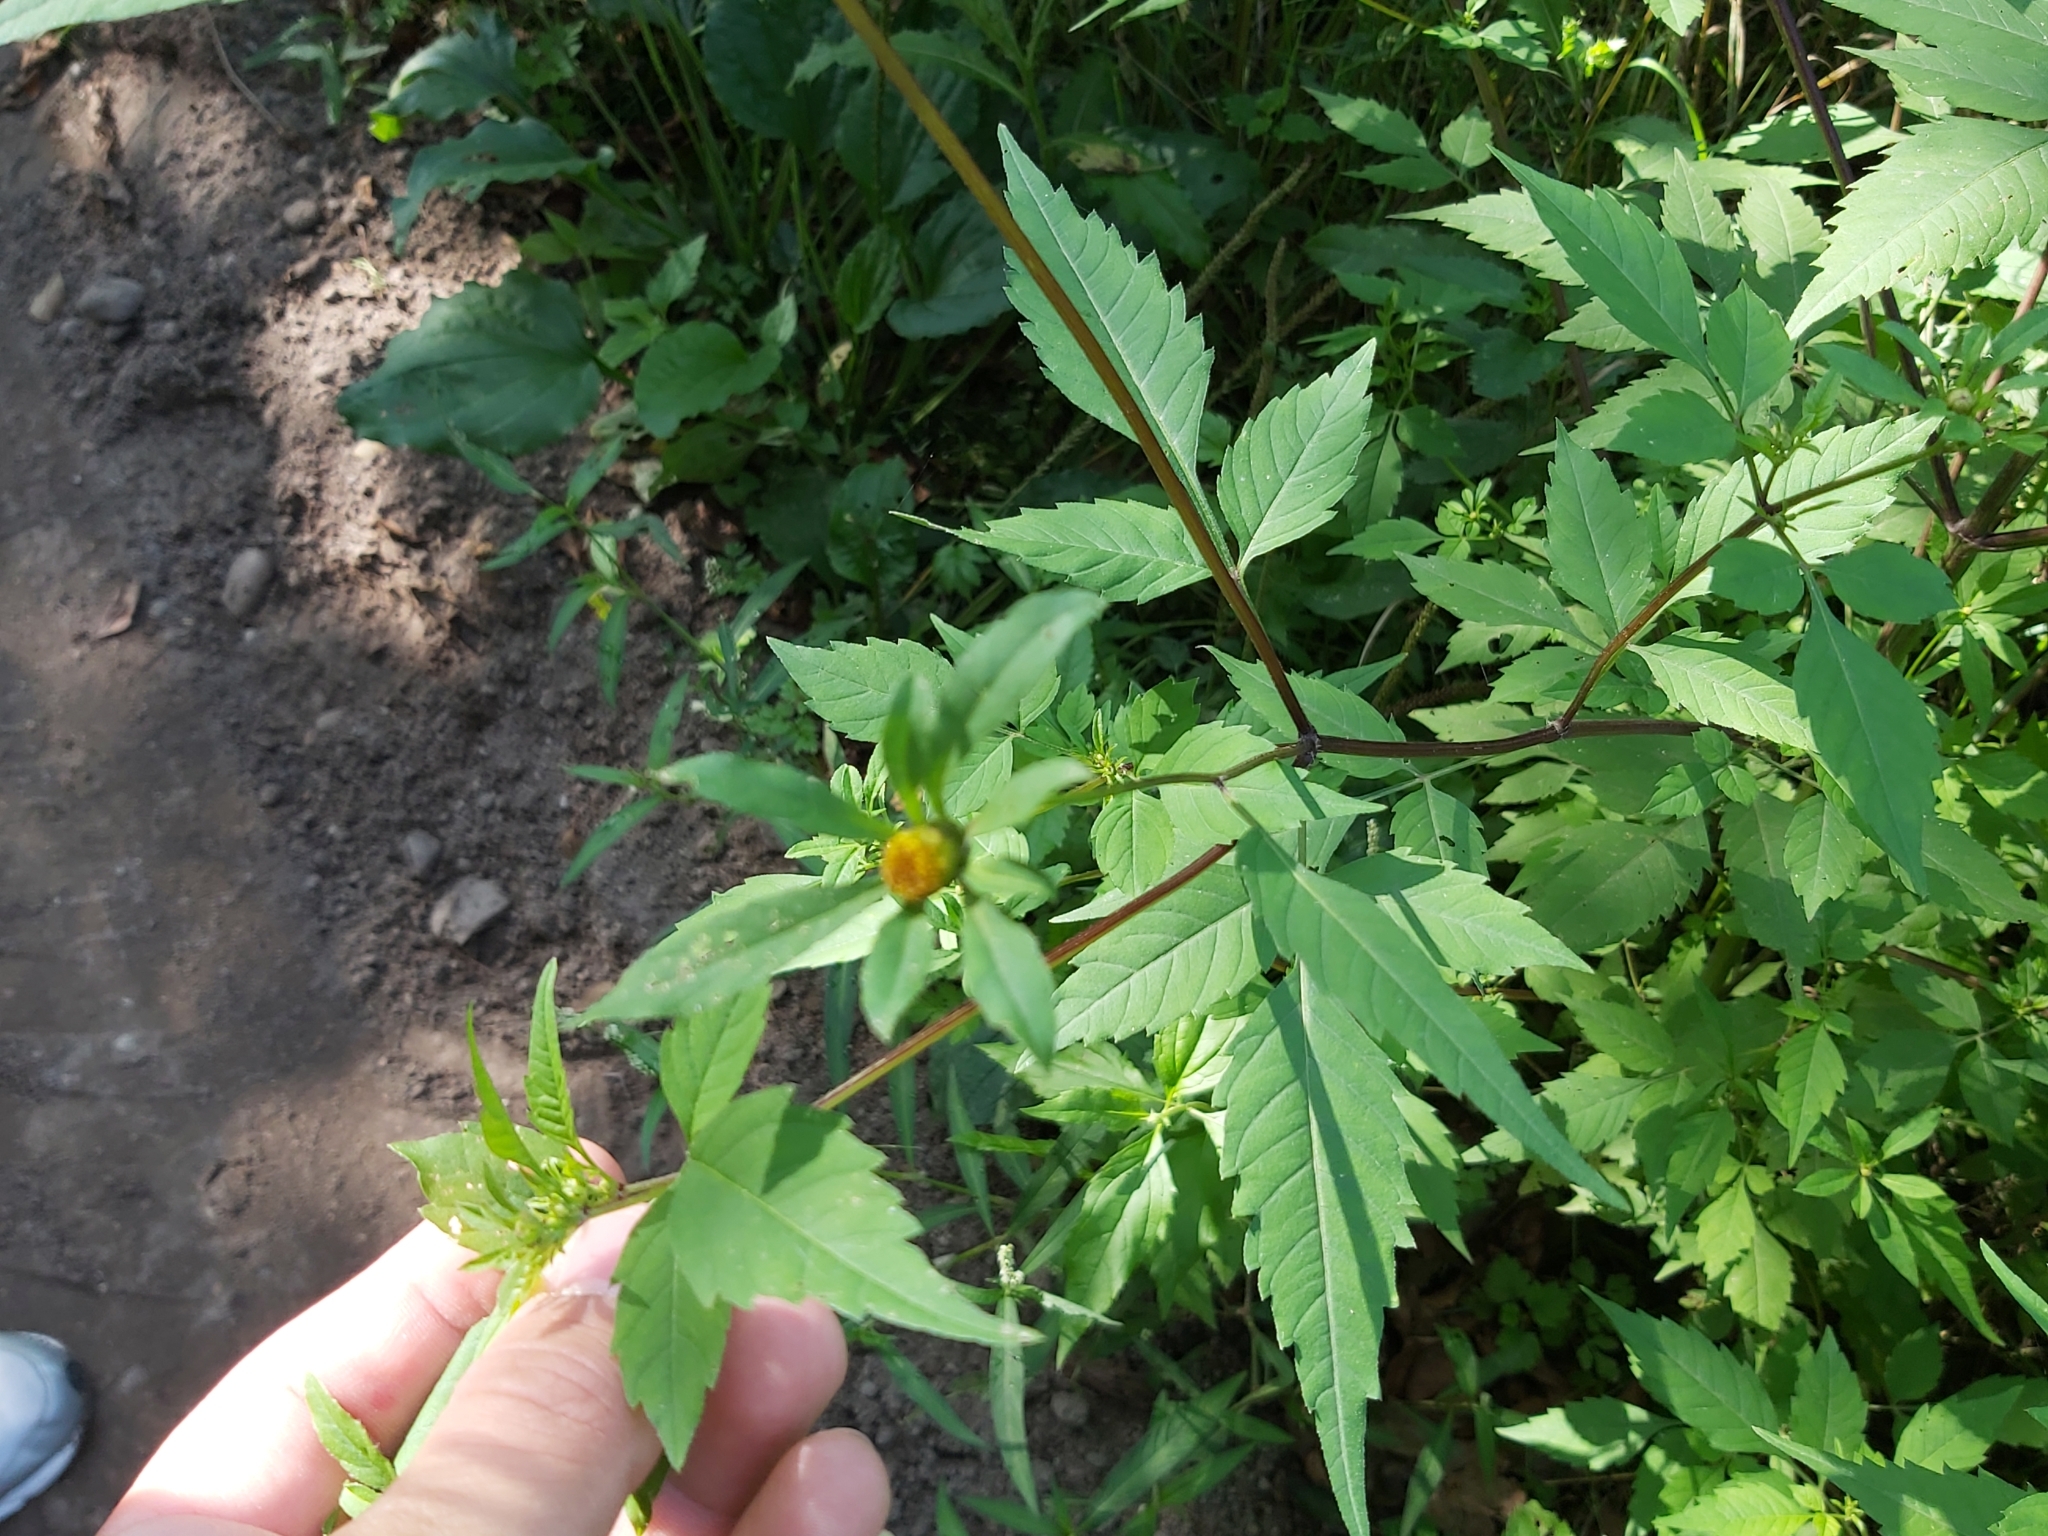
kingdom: Plantae
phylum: Tracheophyta
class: Magnoliopsida
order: Asterales
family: Asteraceae
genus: Bidens
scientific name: Bidens frondosa
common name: Beggarticks
